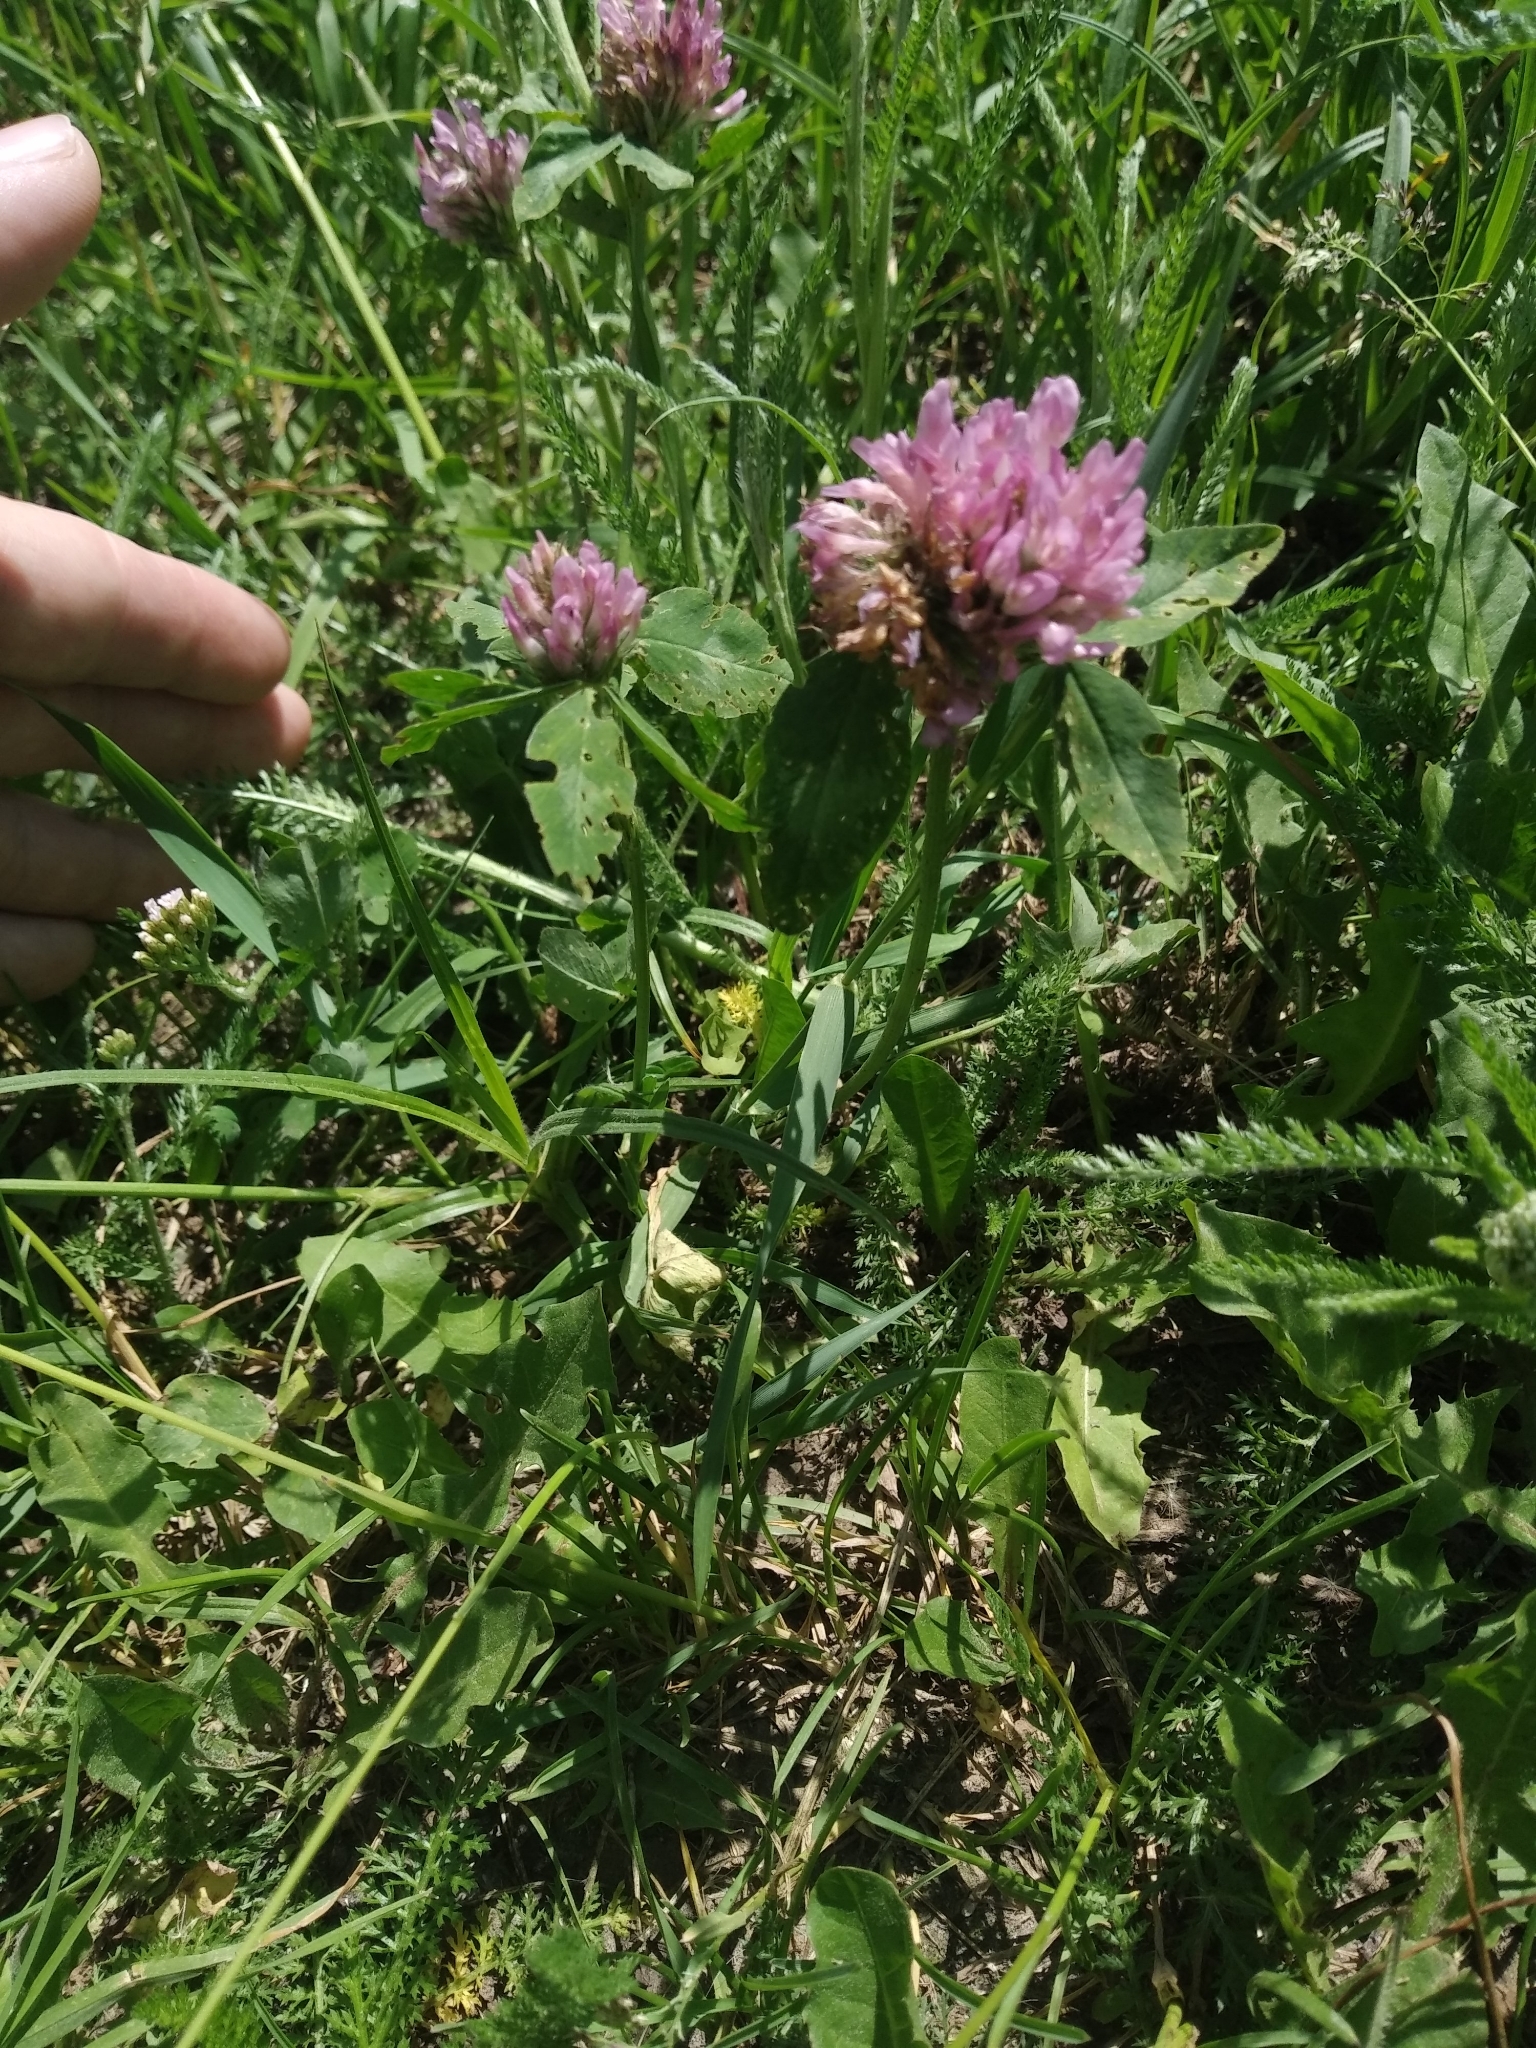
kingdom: Plantae
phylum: Tracheophyta
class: Magnoliopsida
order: Fabales
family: Fabaceae
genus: Trifolium
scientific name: Trifolium pratense
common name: Red clover
